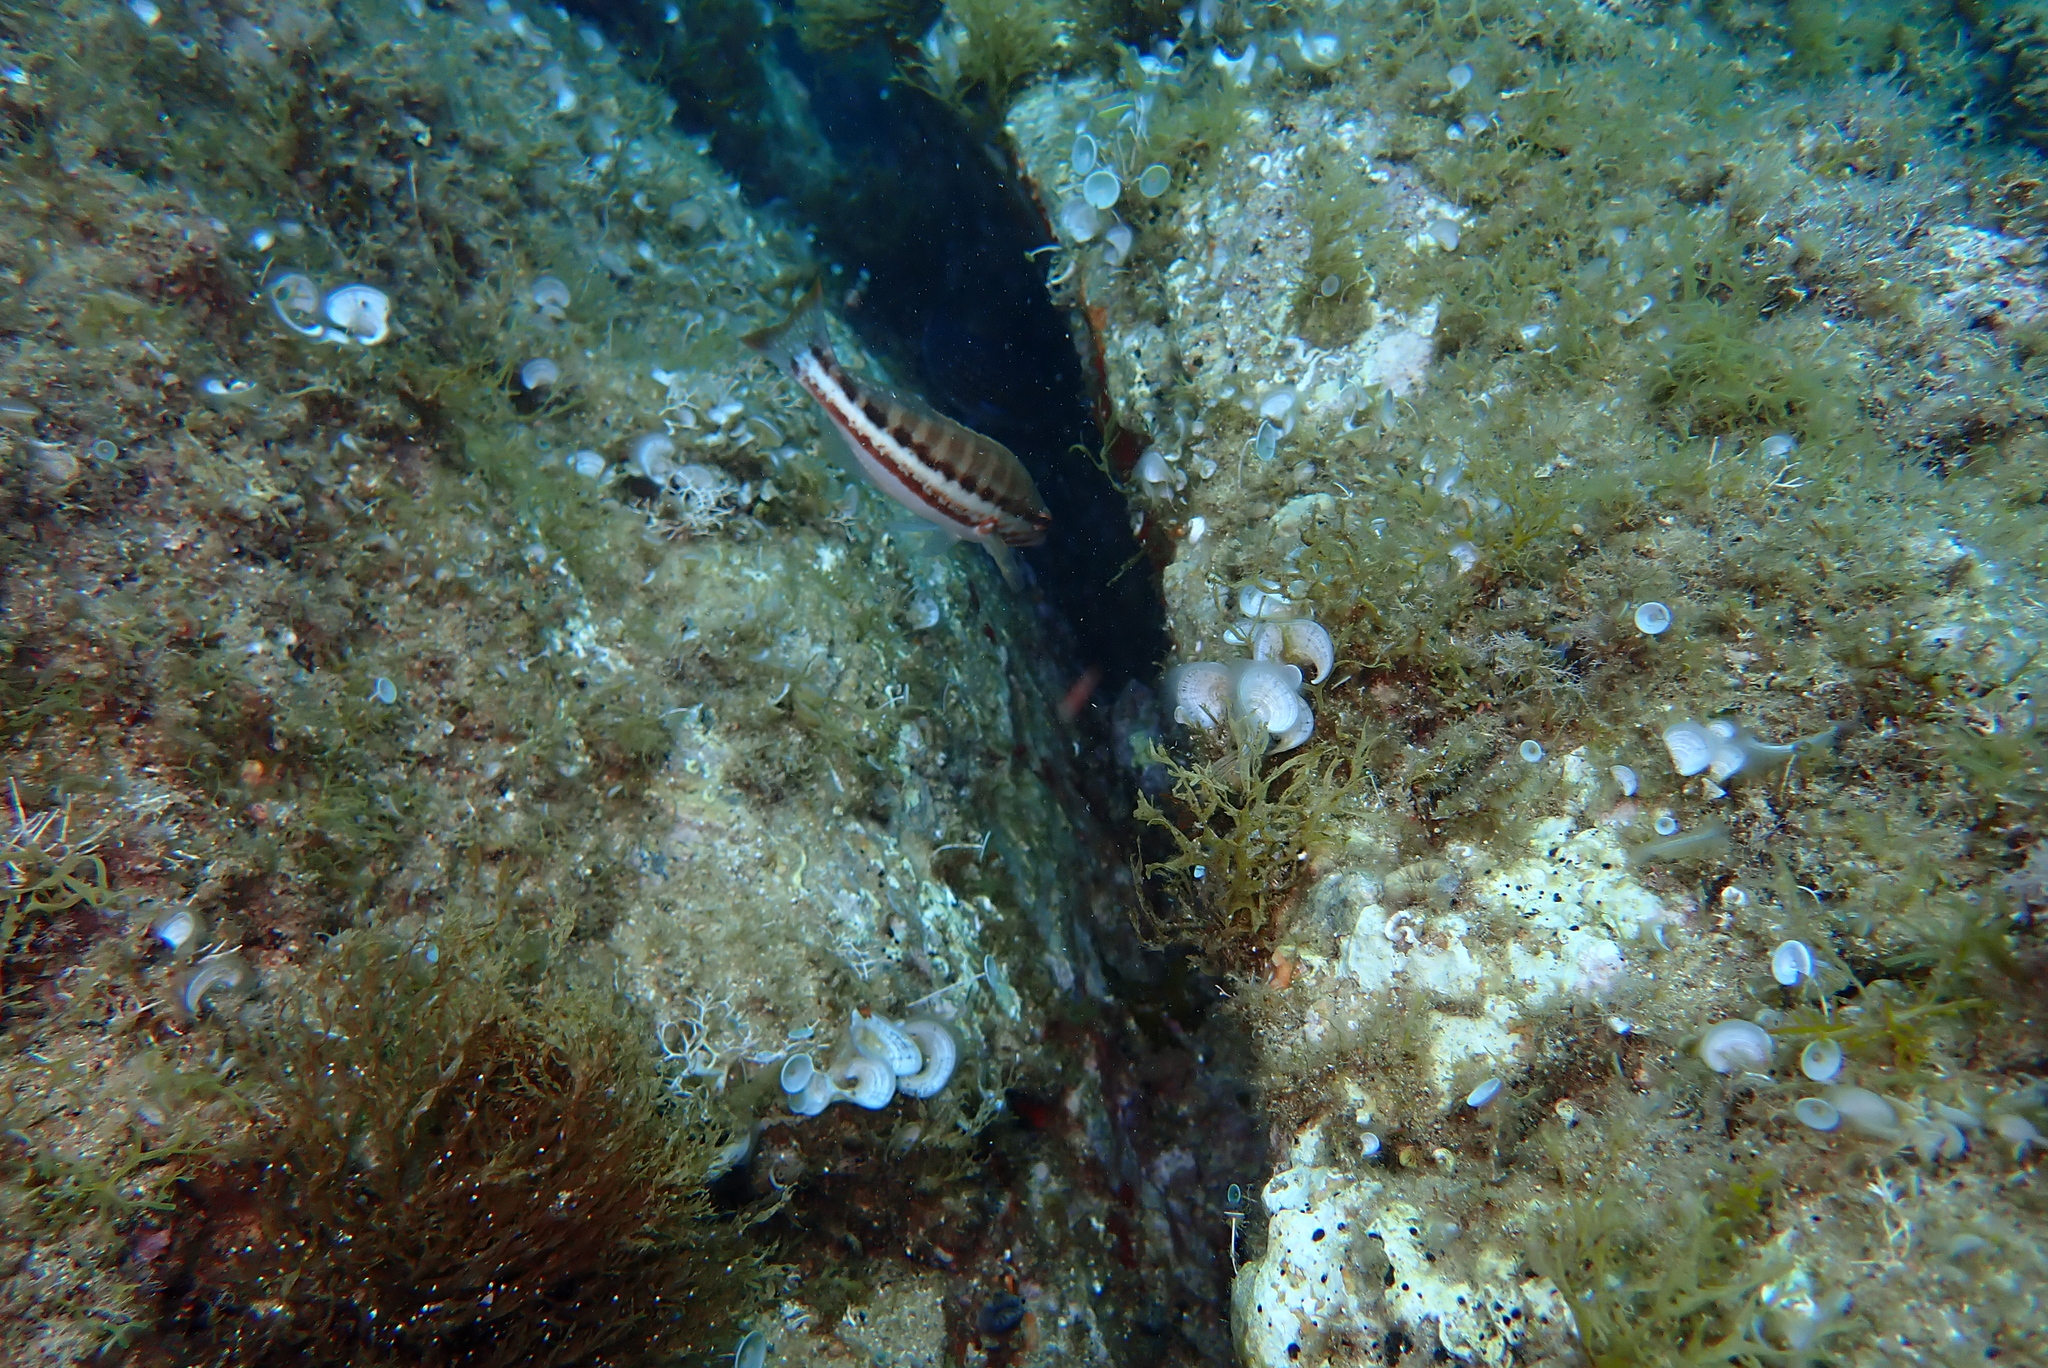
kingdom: Animalia
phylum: Chordata
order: Perciformes
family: Serranidae
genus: Serranus
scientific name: Serranus cabrilla
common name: Comber
